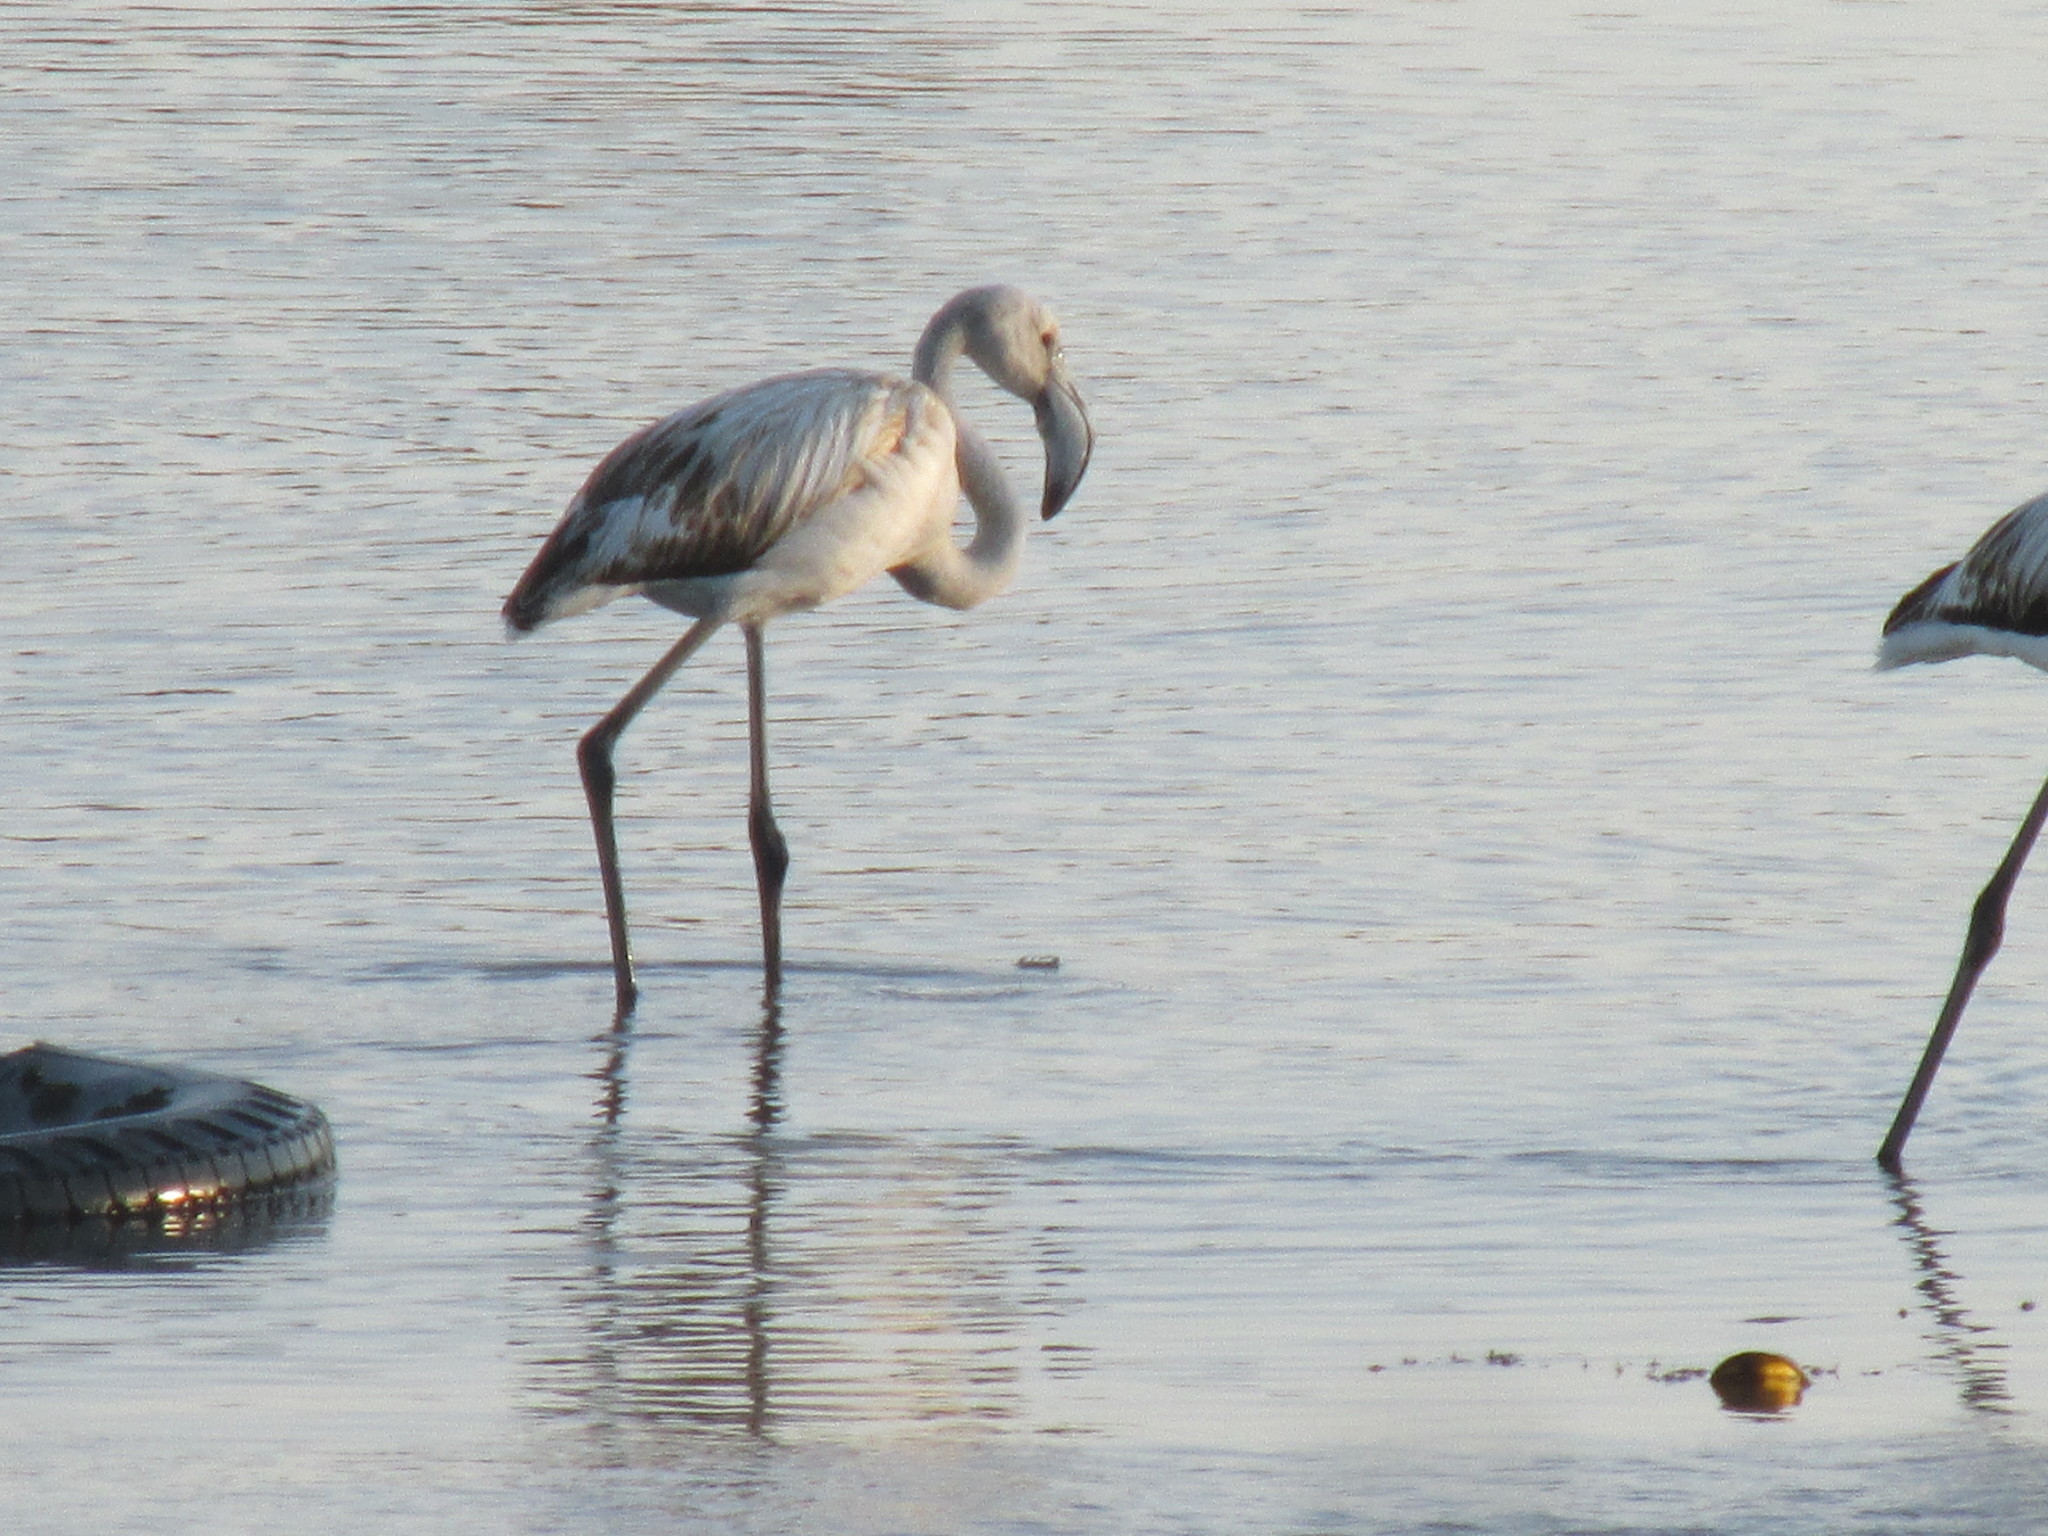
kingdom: Animalia
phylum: Chordata
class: Aves
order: Phoenicopteriformes
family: Phoenicopteridae
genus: Phoenicopterus
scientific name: Phoenicopterus roseus
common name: Greater flamingo
